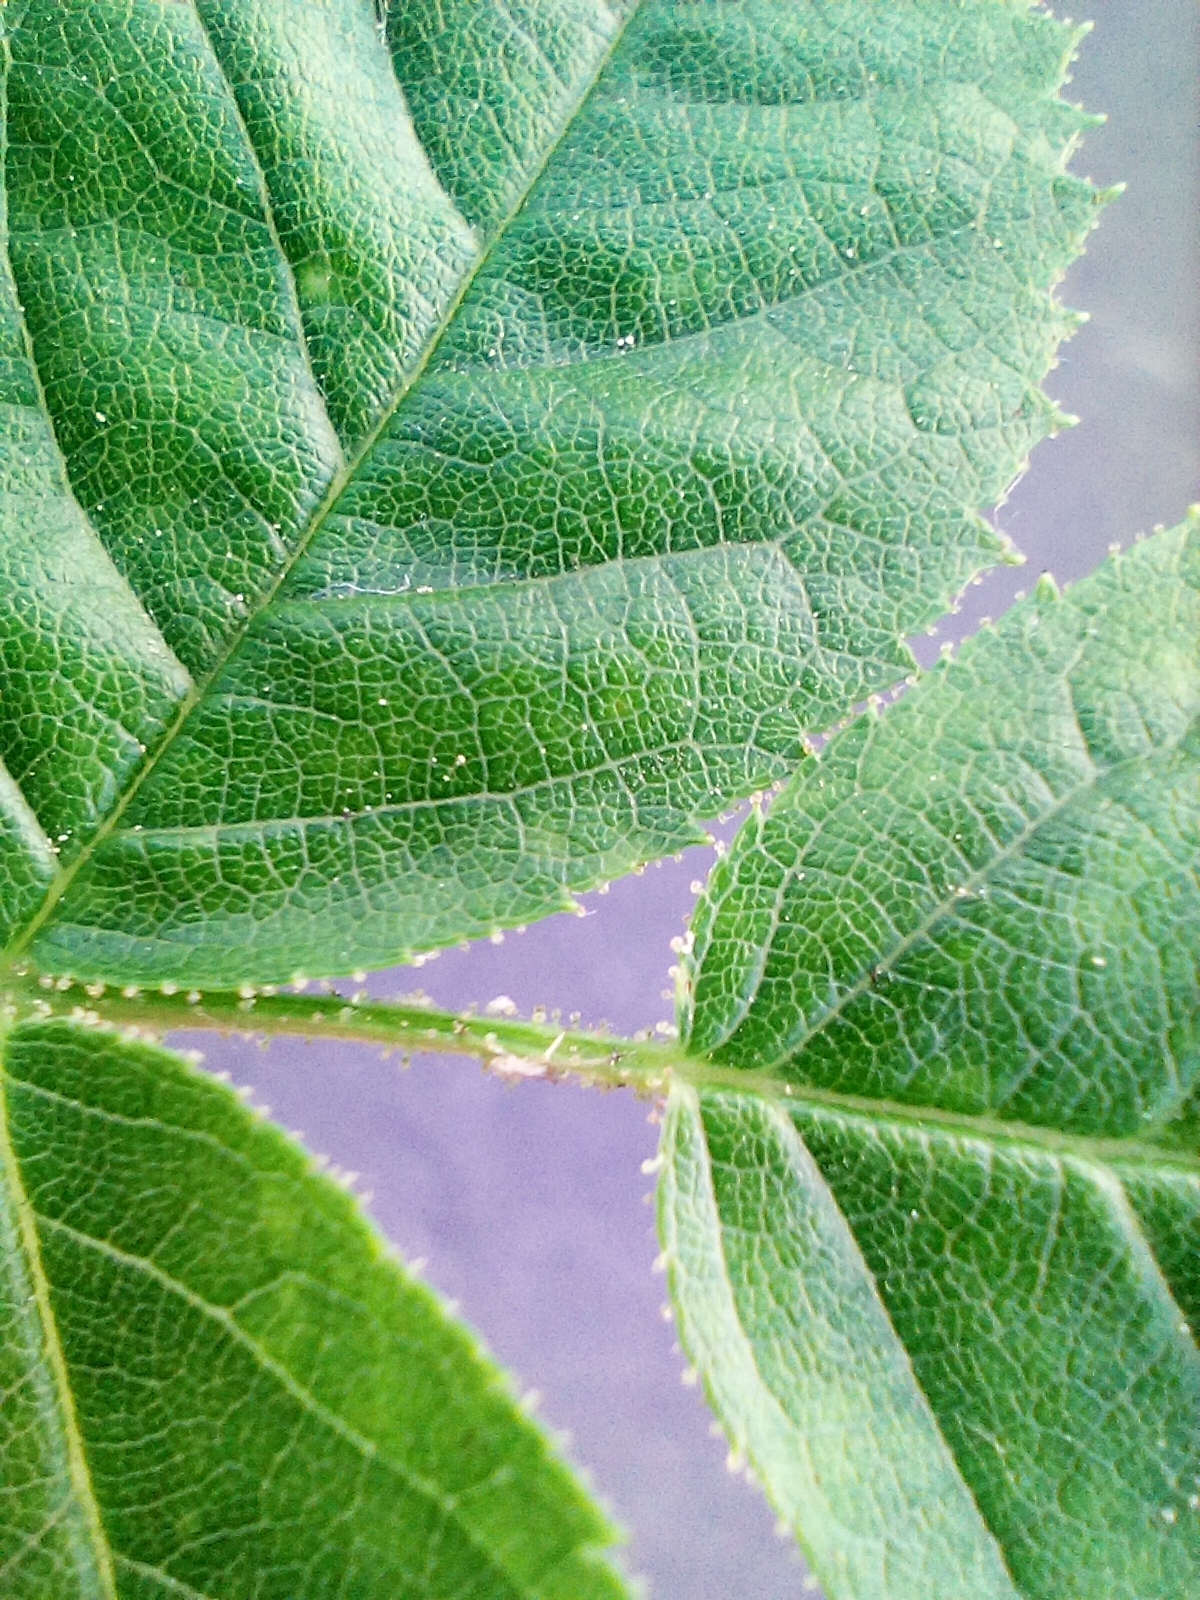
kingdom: Plantae
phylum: Tracheophyta
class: Magnoliopsida
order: Rosales
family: Rosaceae
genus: Rosa
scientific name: Rosa rubiginosa
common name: Sweet-briar
